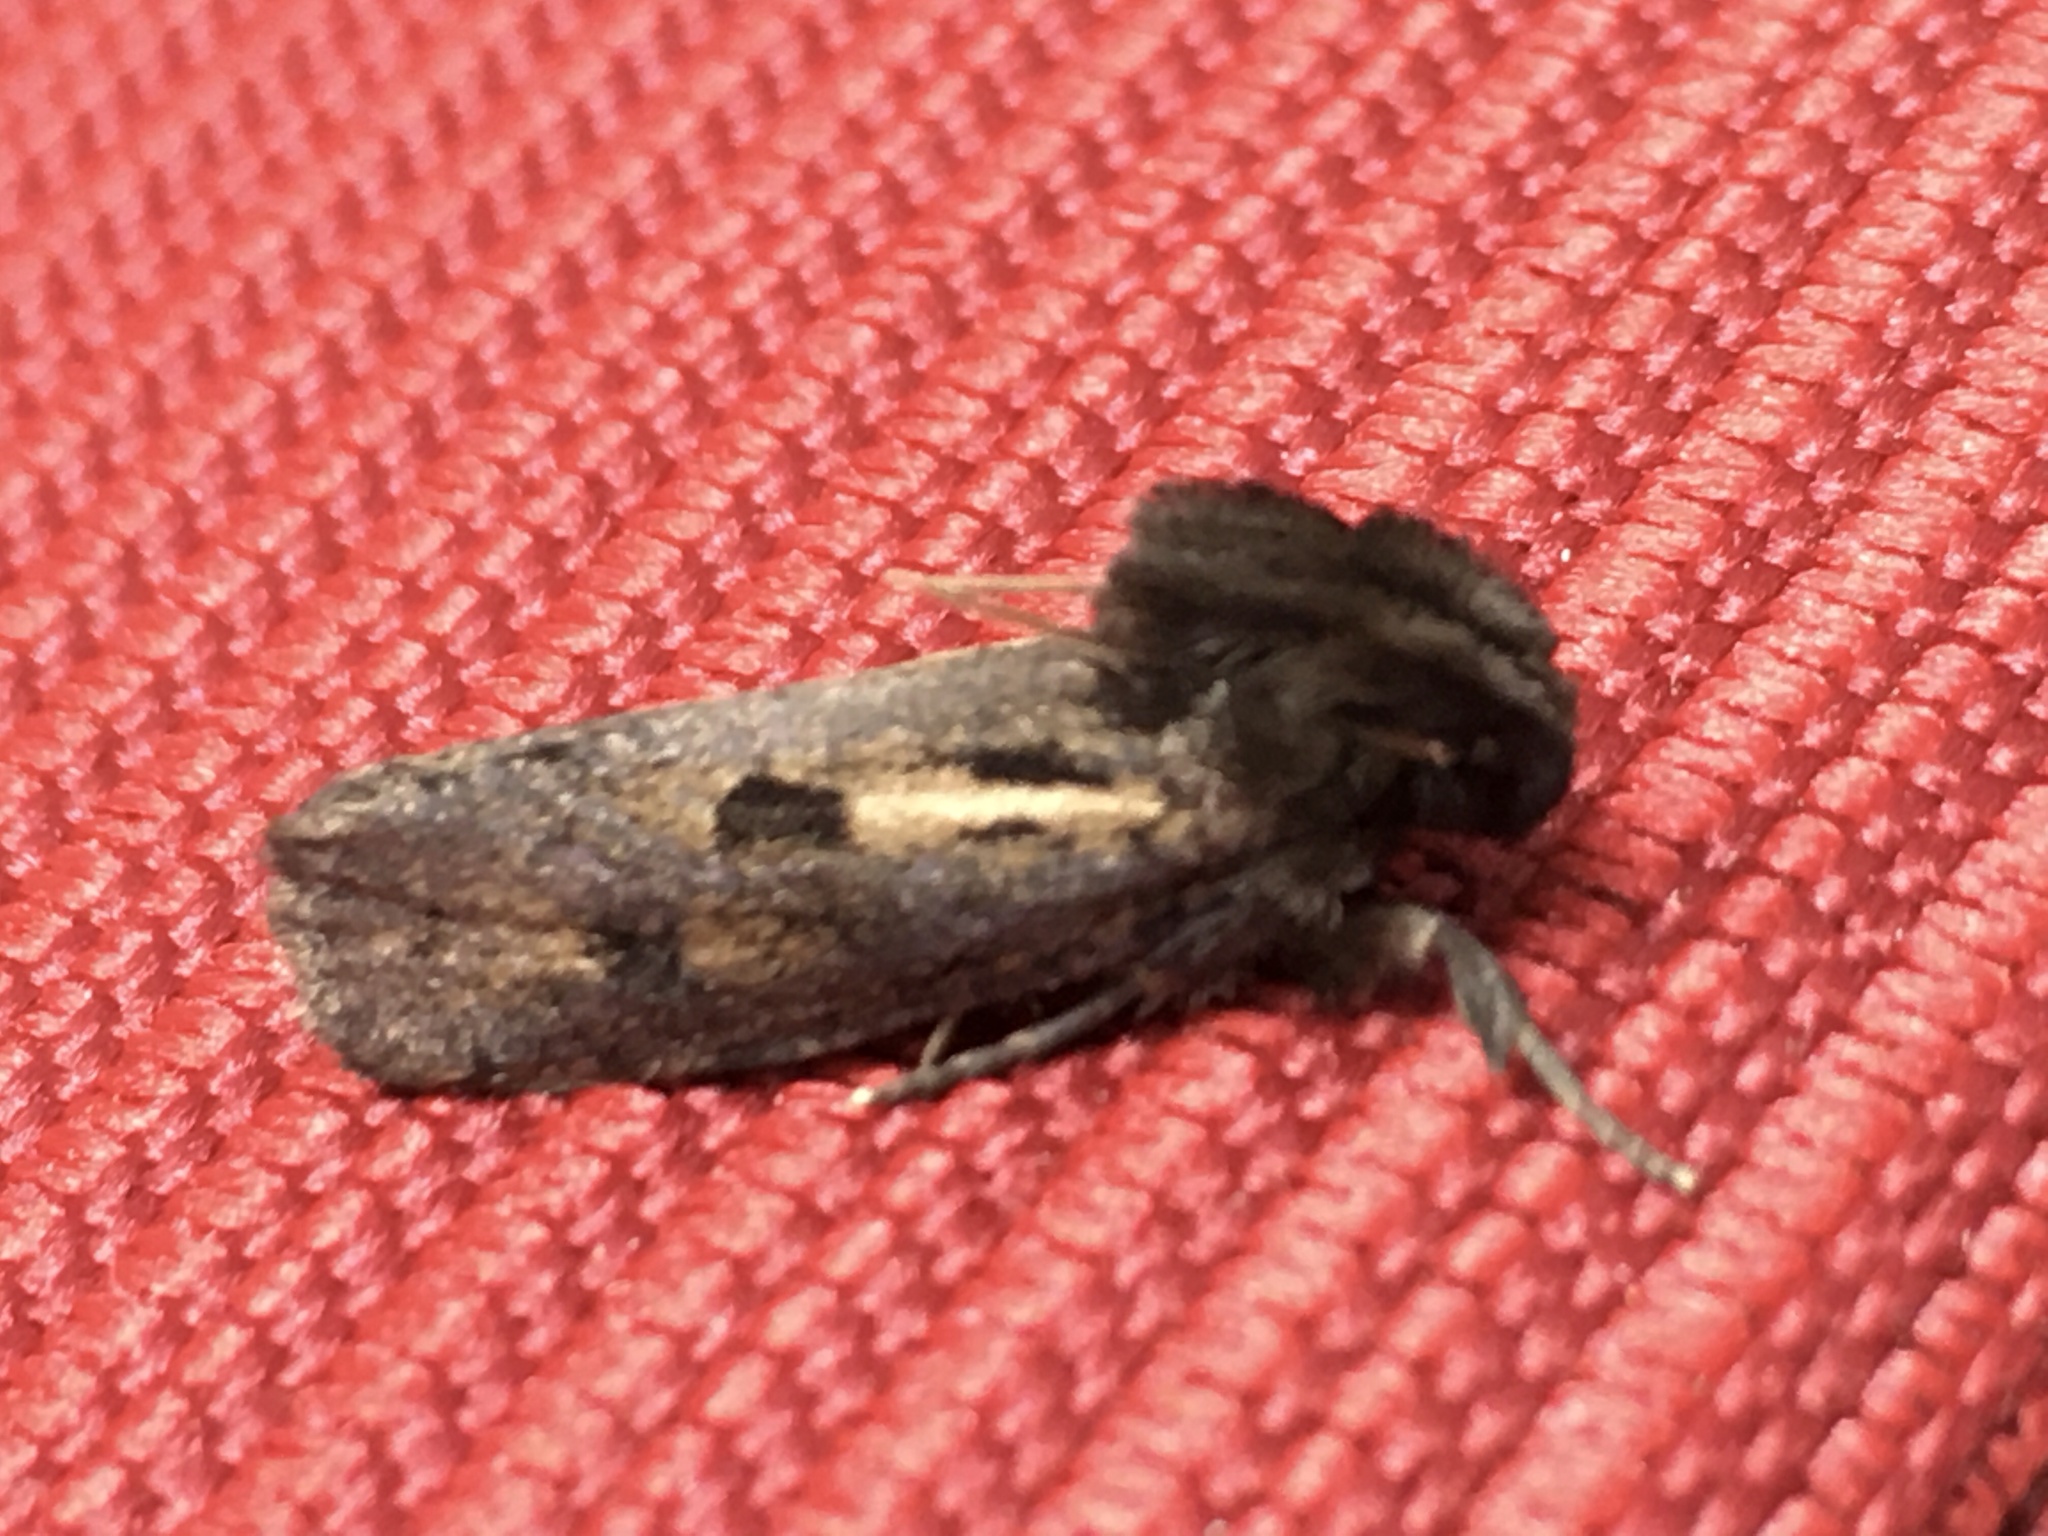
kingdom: Animalia
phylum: Arthropoda
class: Insecta
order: Lepidoptera
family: Tineidae
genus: Acrolophus
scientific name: Acrolophus popeanella
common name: Clemens' grass tubeworm moth
